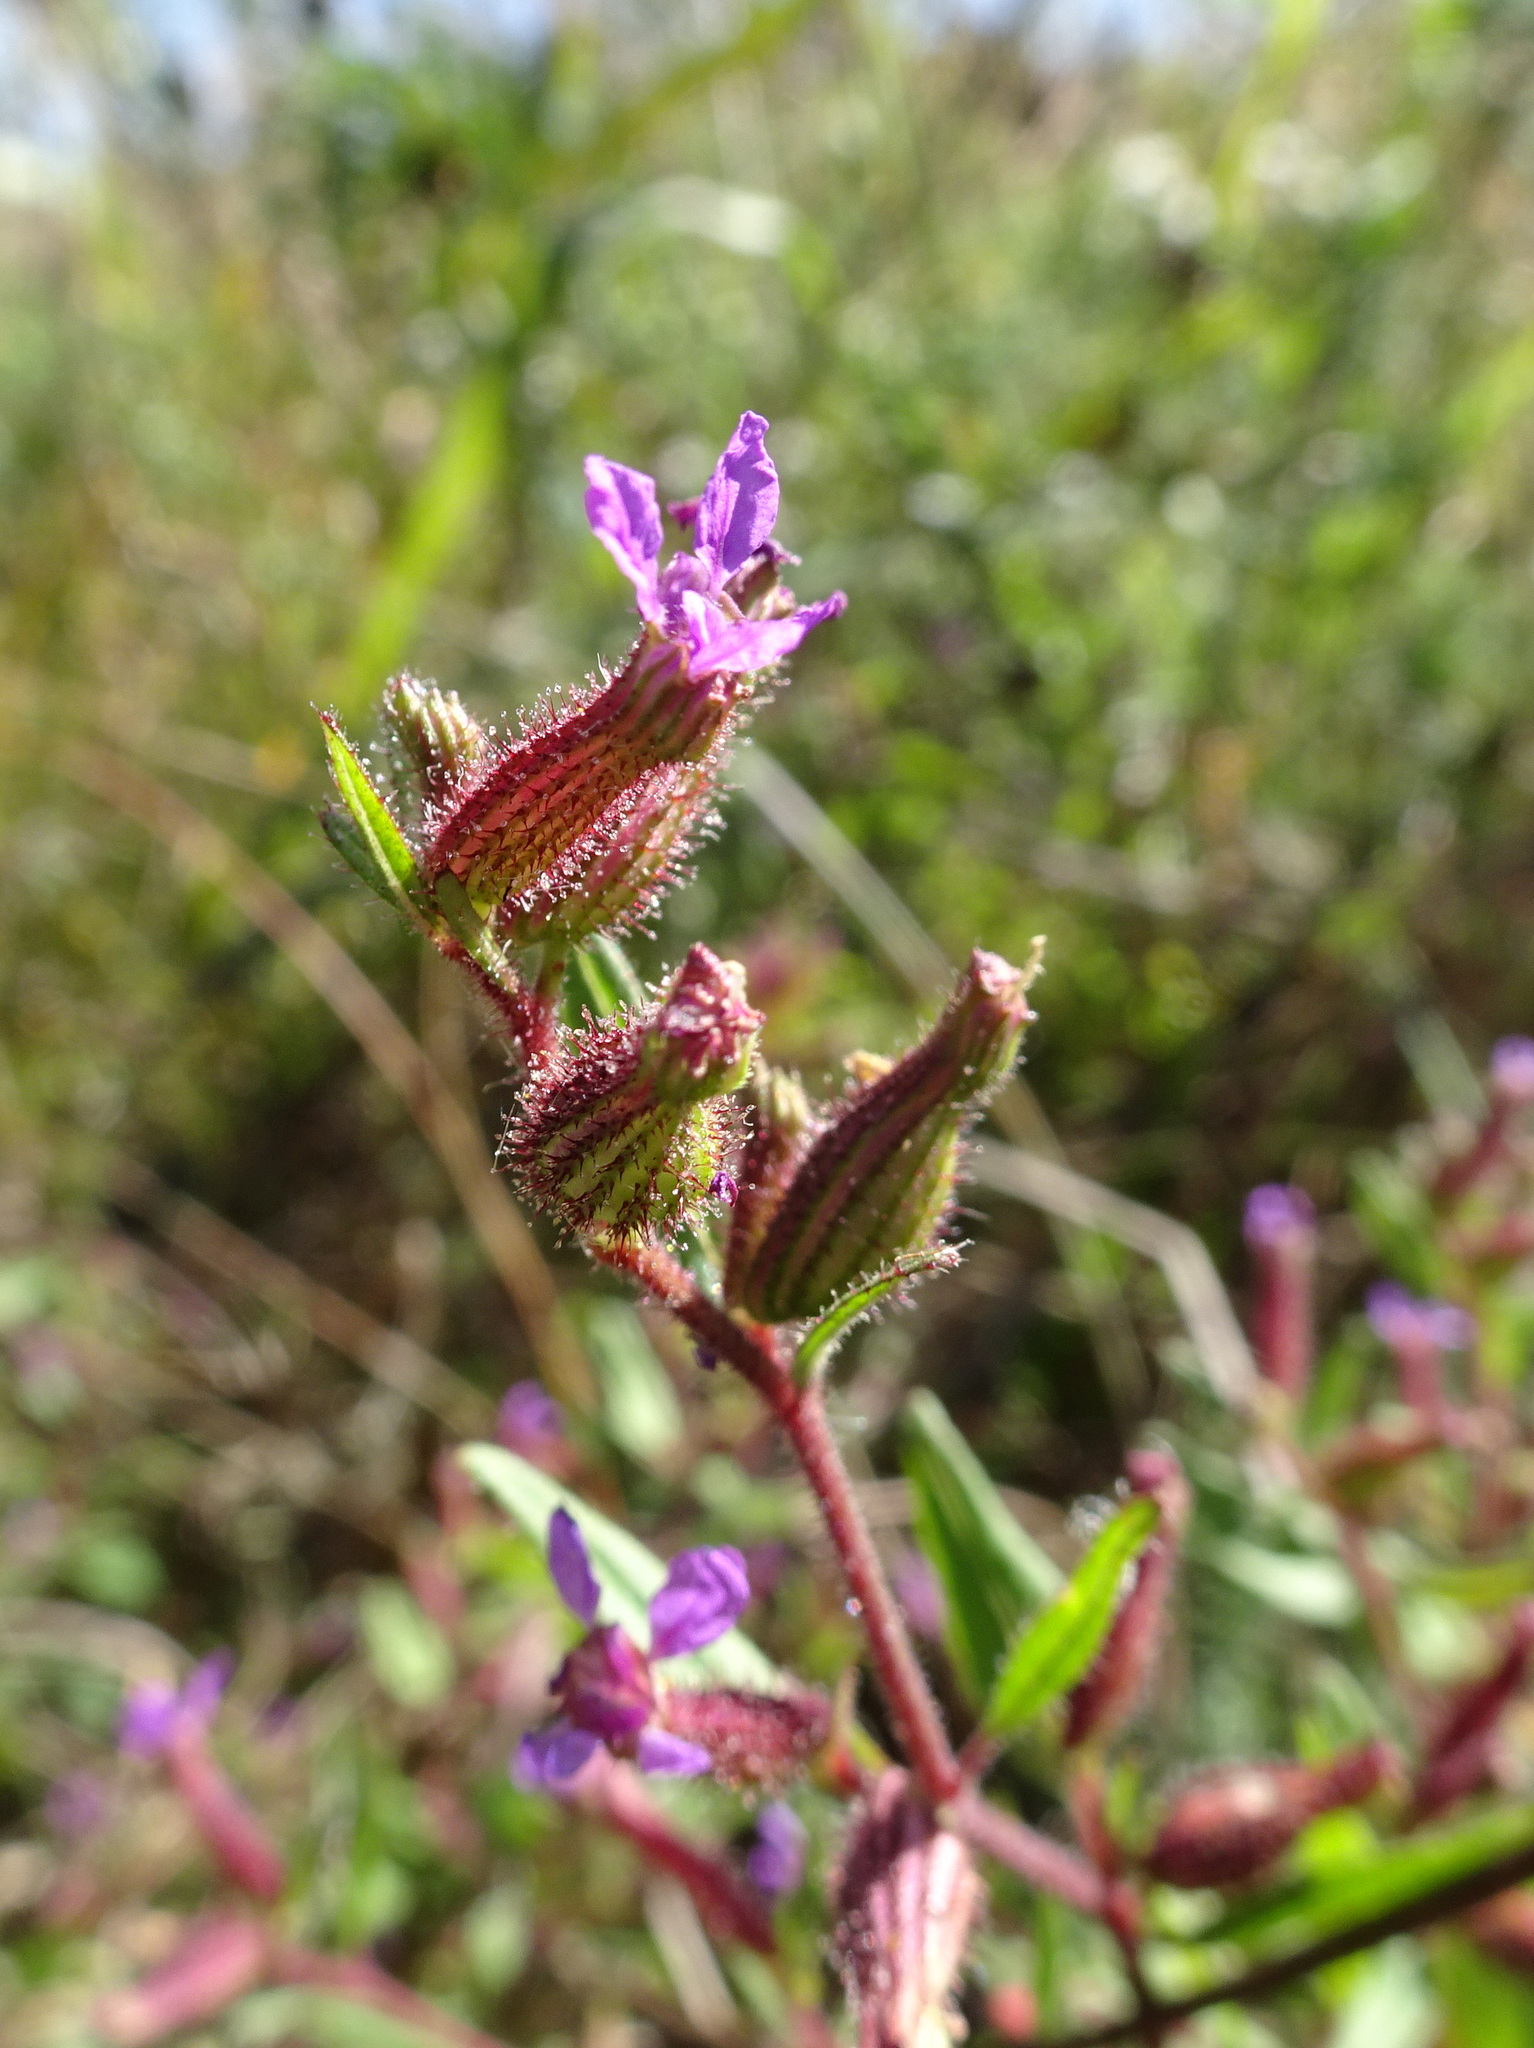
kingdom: Plantae
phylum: Tracheophyta
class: Magnoliopsida
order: Myrtales
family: Lythraceae
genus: Cuphea
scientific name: Cuphea viscosissima
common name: Clammy cuphea
